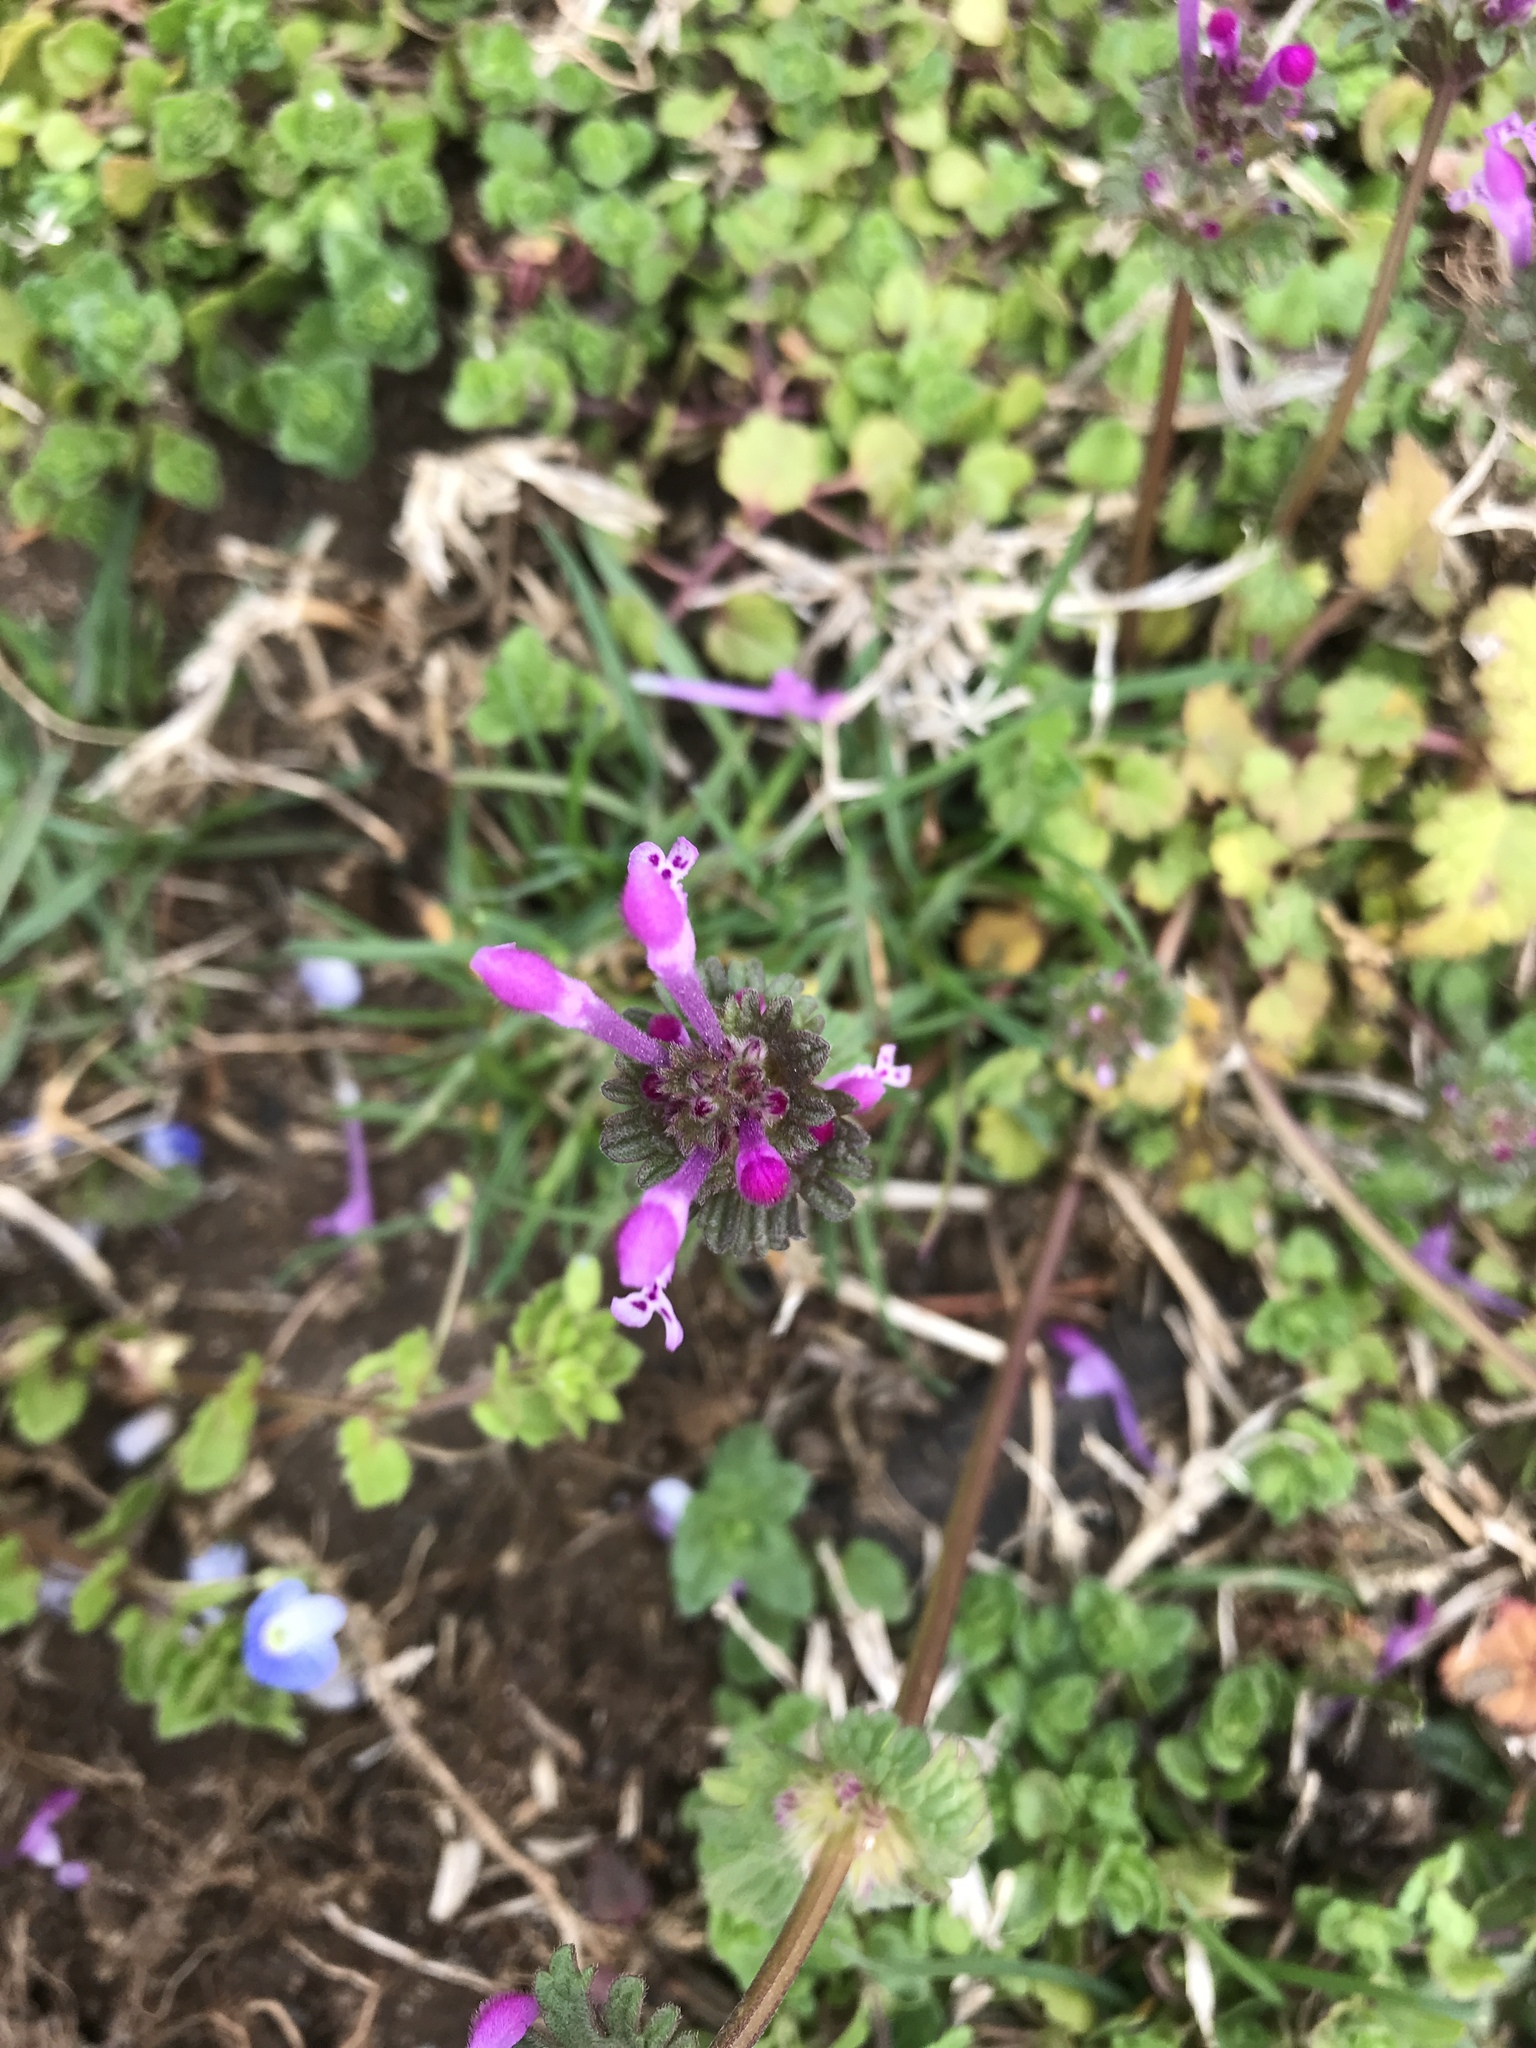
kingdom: Plantae
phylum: Tracheophyta
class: Magnoliopsida
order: Lamiales
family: Lamiaceae
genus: Lamium
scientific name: Lamium amplexicaule
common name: Henbit dead-nettle
